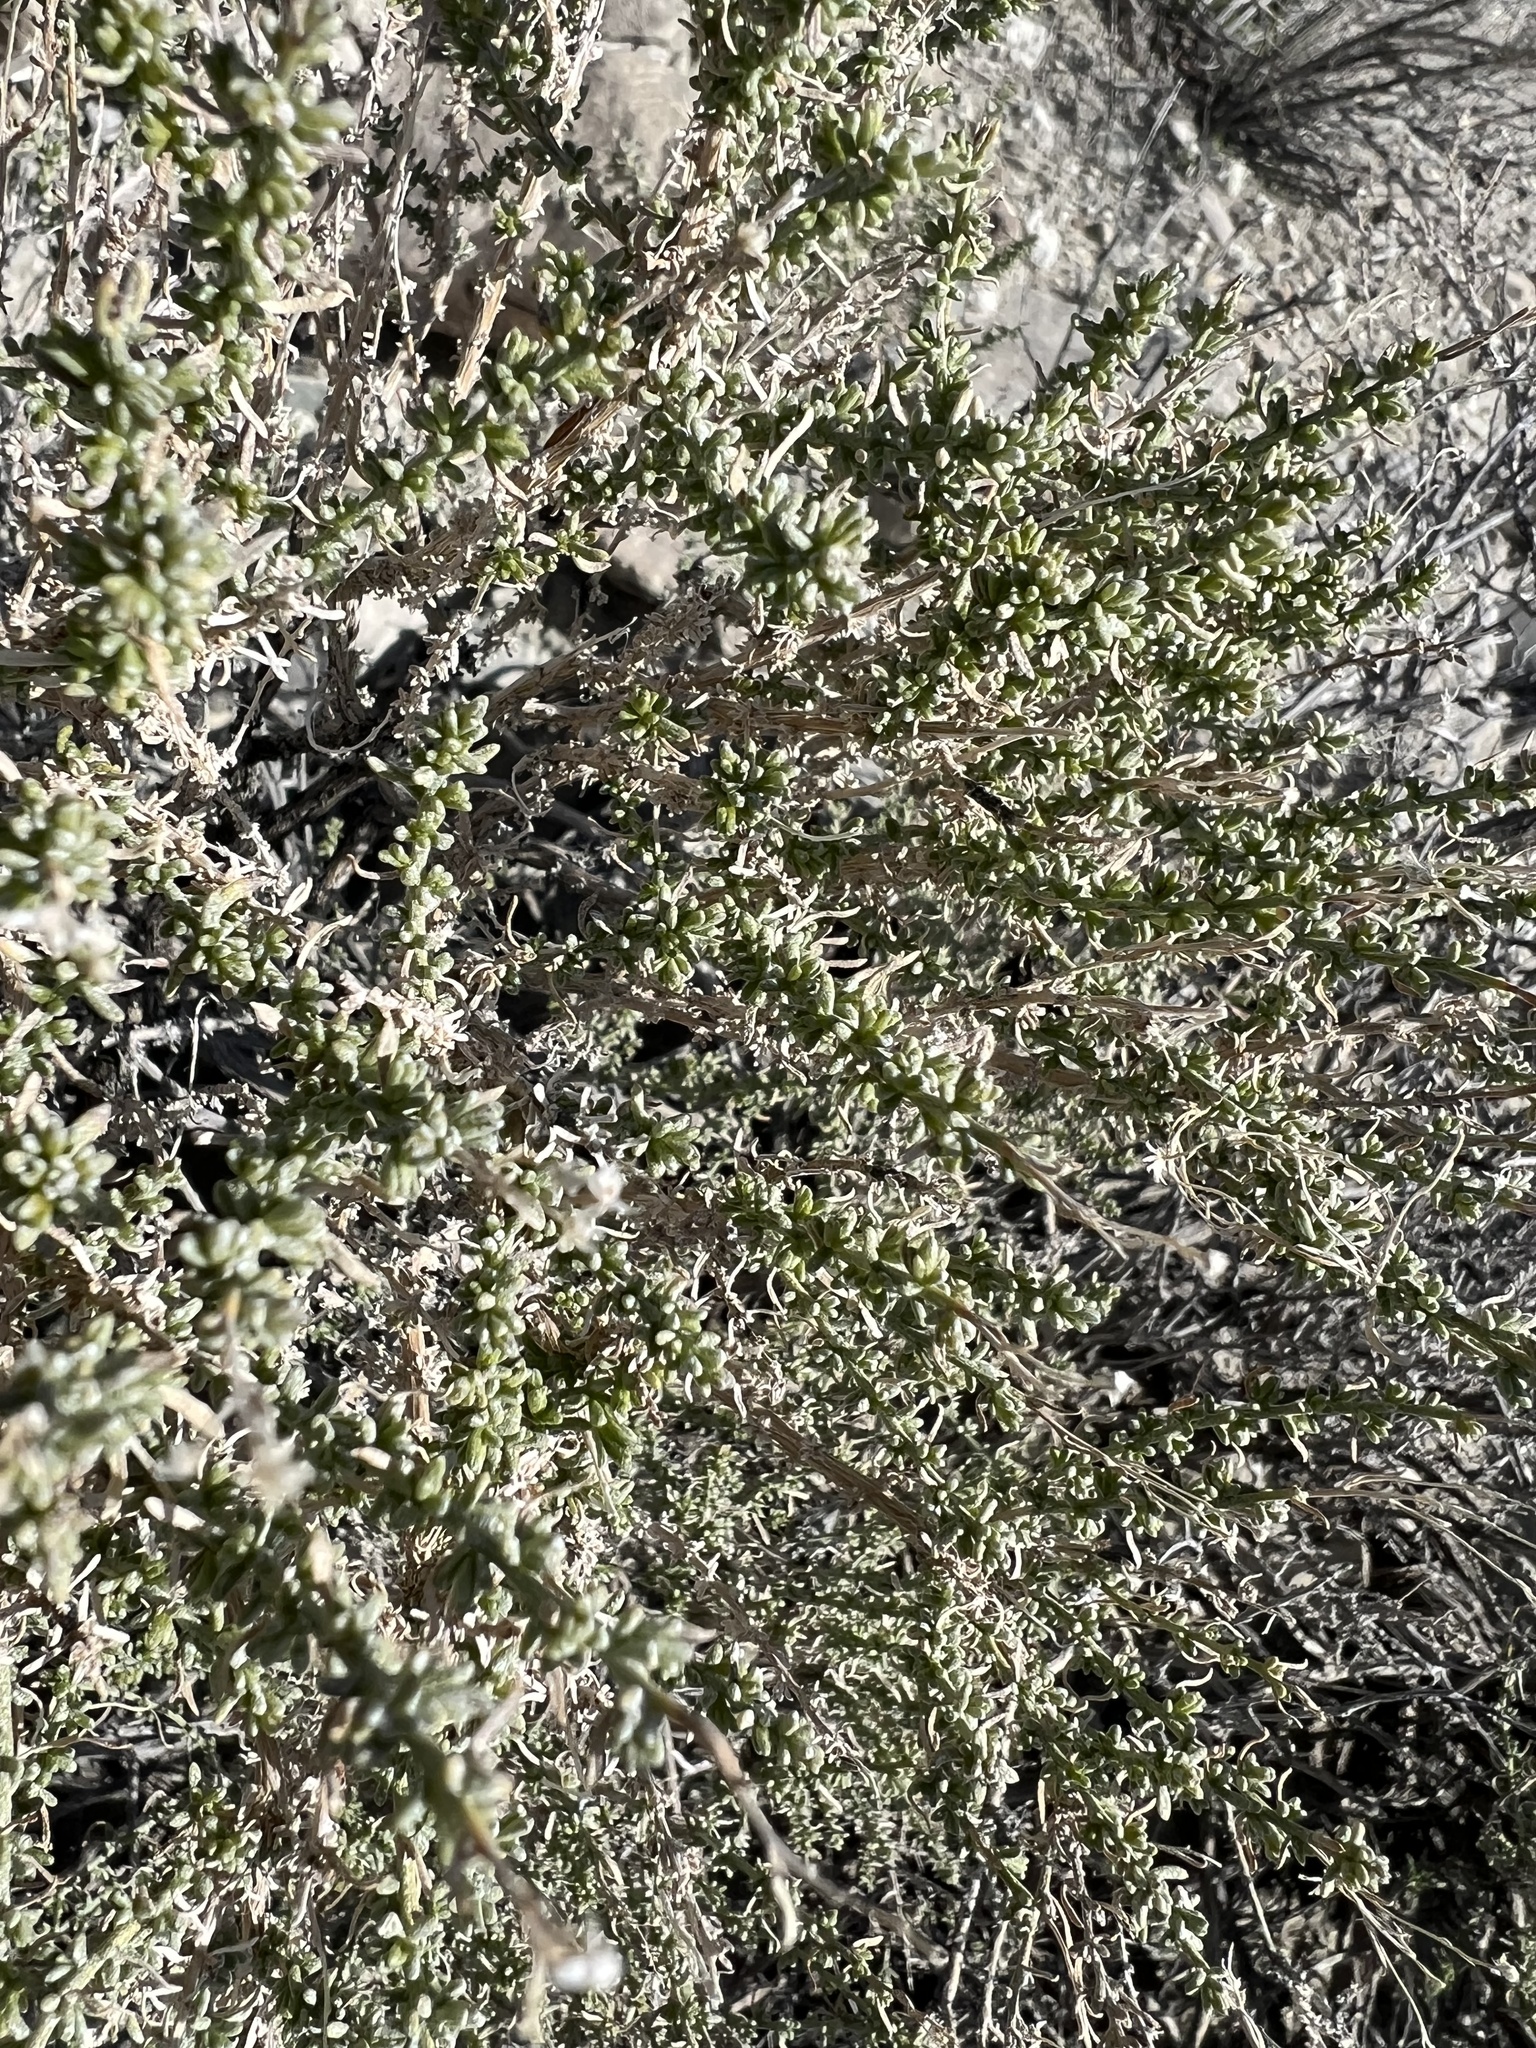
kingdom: Plantae
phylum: Tracheophyta
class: Magnoliopsida
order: Asterales
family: Asteraceae
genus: Ericameria
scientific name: Ericameria cooperi
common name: Cooper's goldenbush
